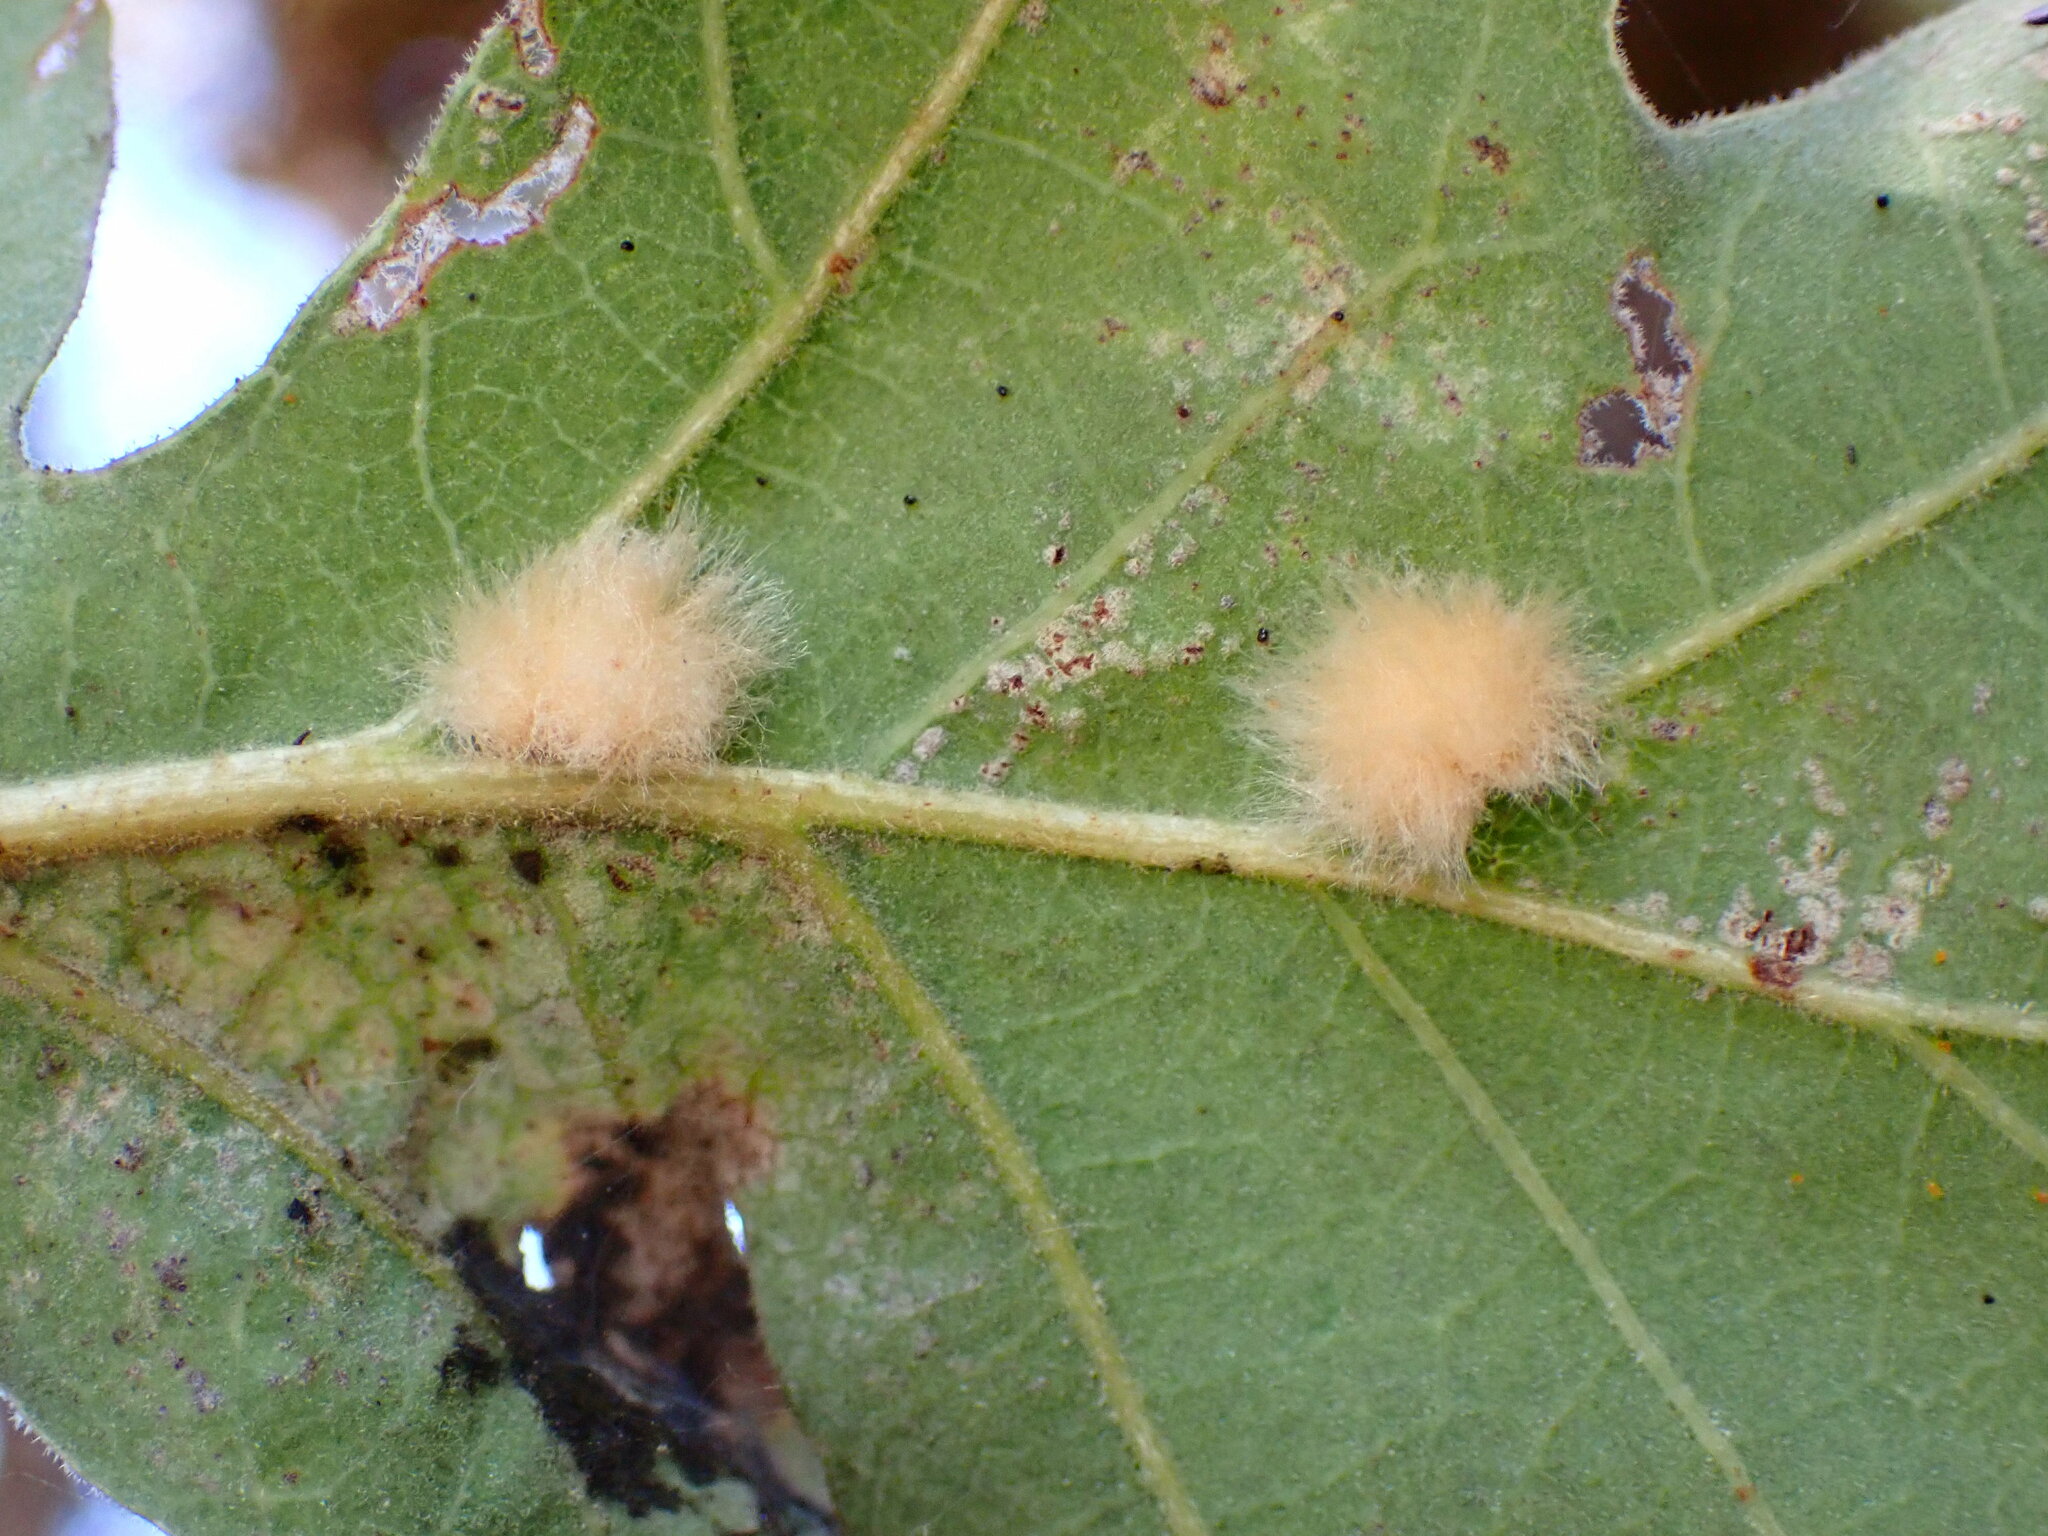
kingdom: Animalia
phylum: Arthropoda
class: Insecta
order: Hymenoptera
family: Cynipidae
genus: Andricus
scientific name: Andricus Druon fullawayi
